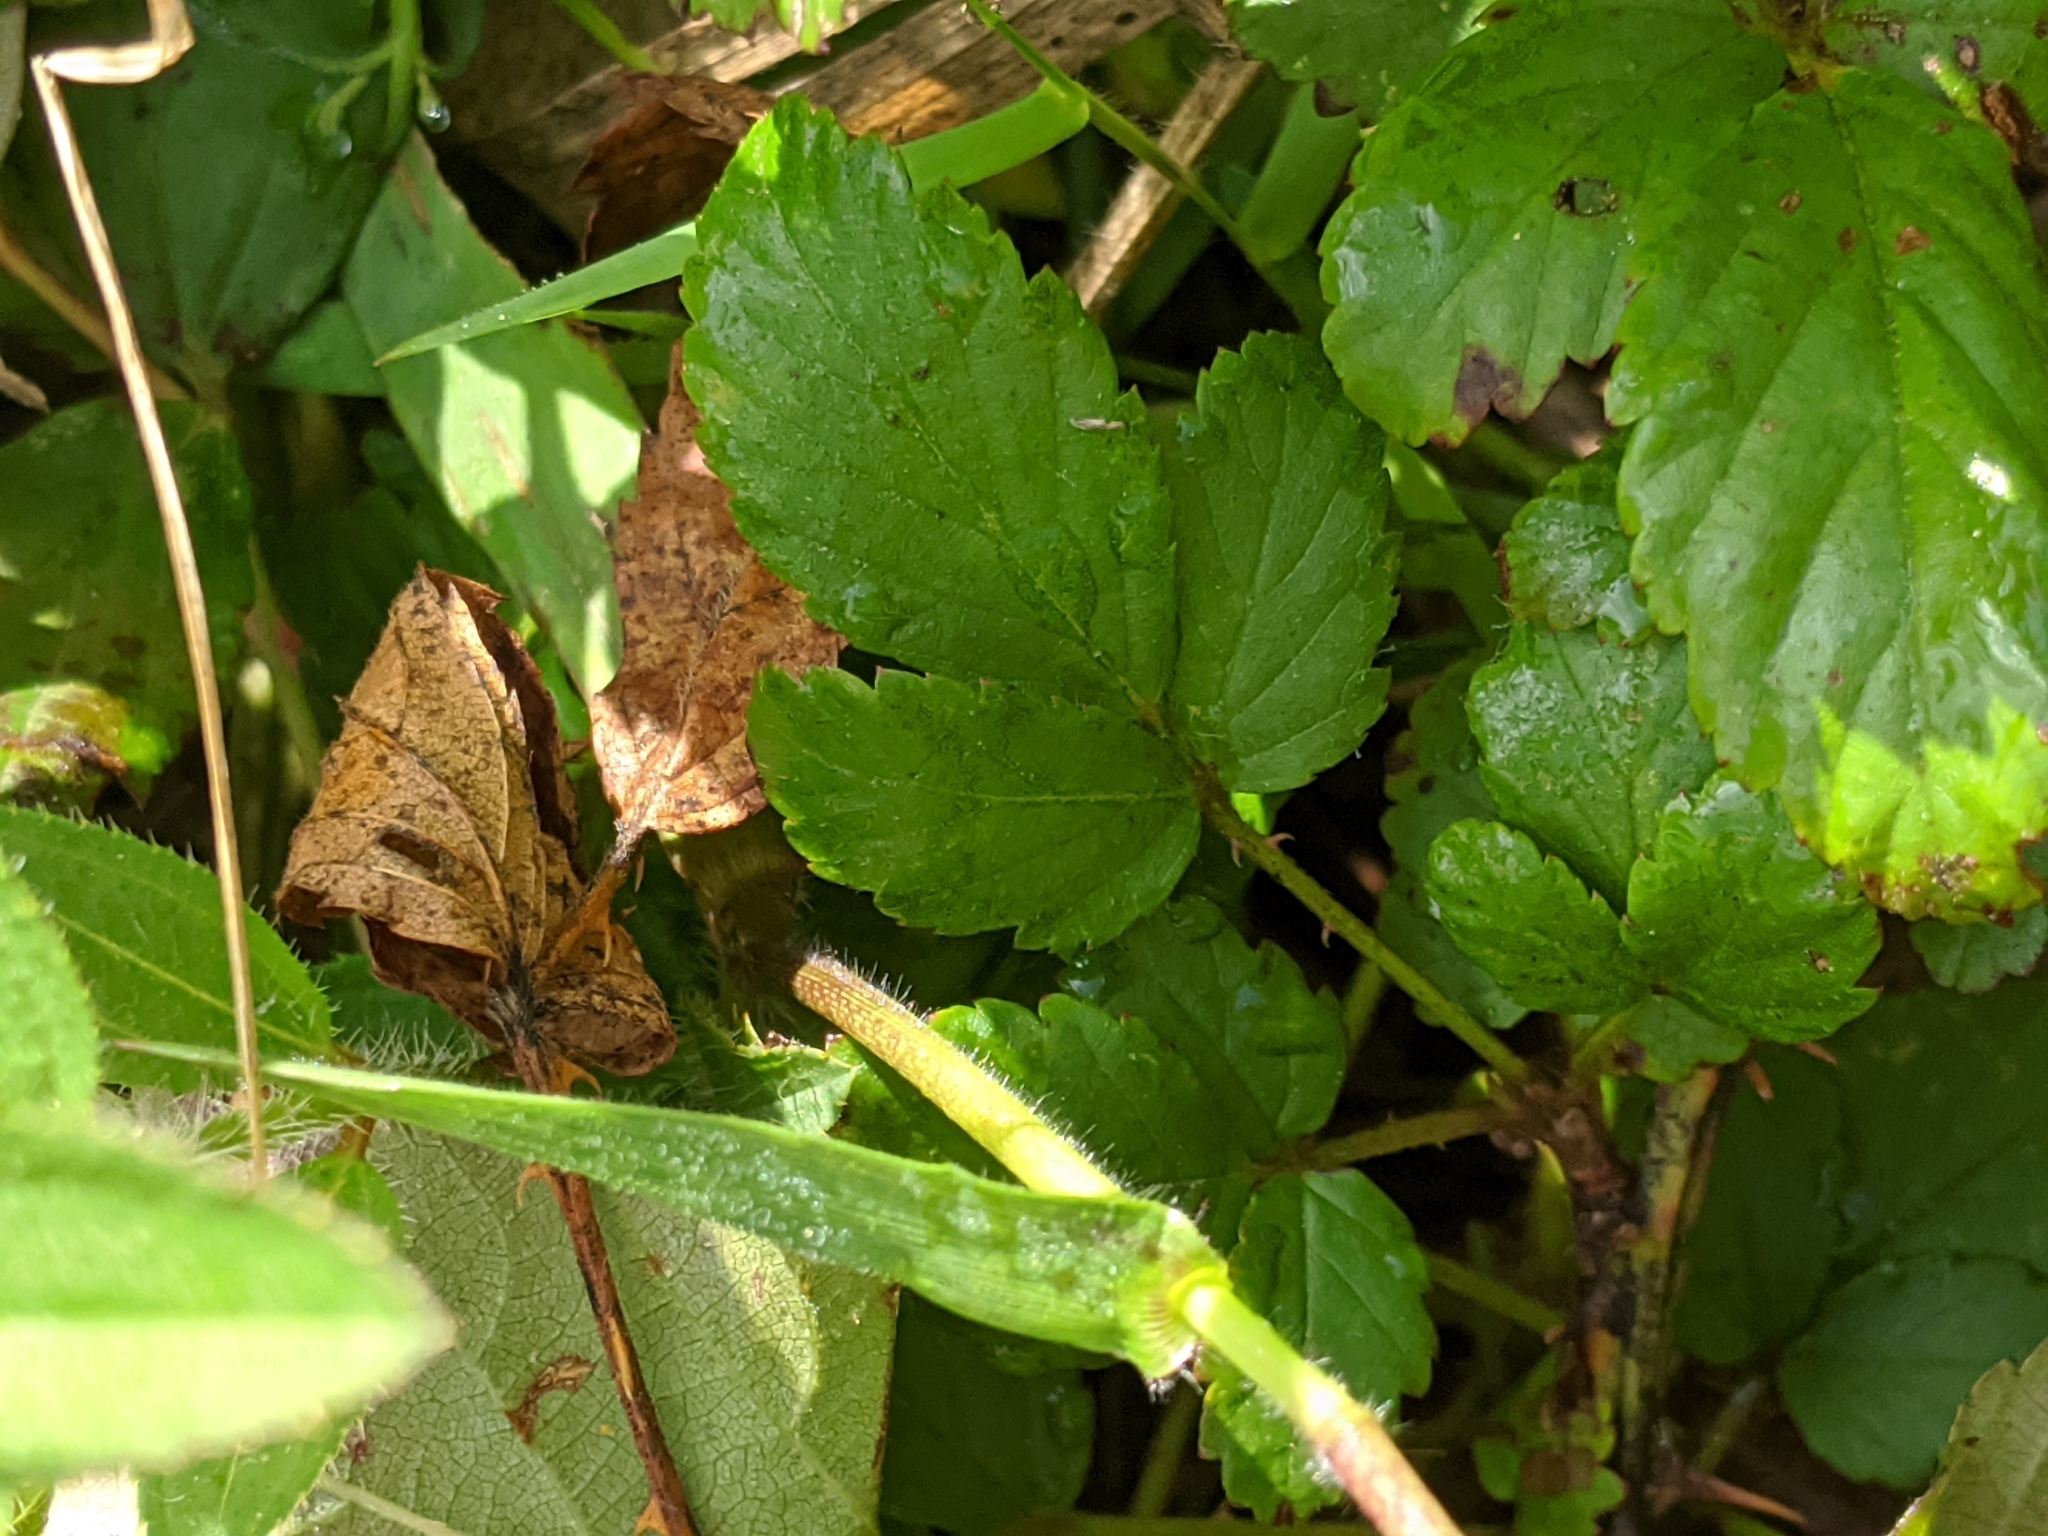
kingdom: Plantae
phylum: Tracheophyta
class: Magnoliopsida
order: Rosales
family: Rosaceae
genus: Rubus
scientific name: Rubus flagellaris
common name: American dewberry
